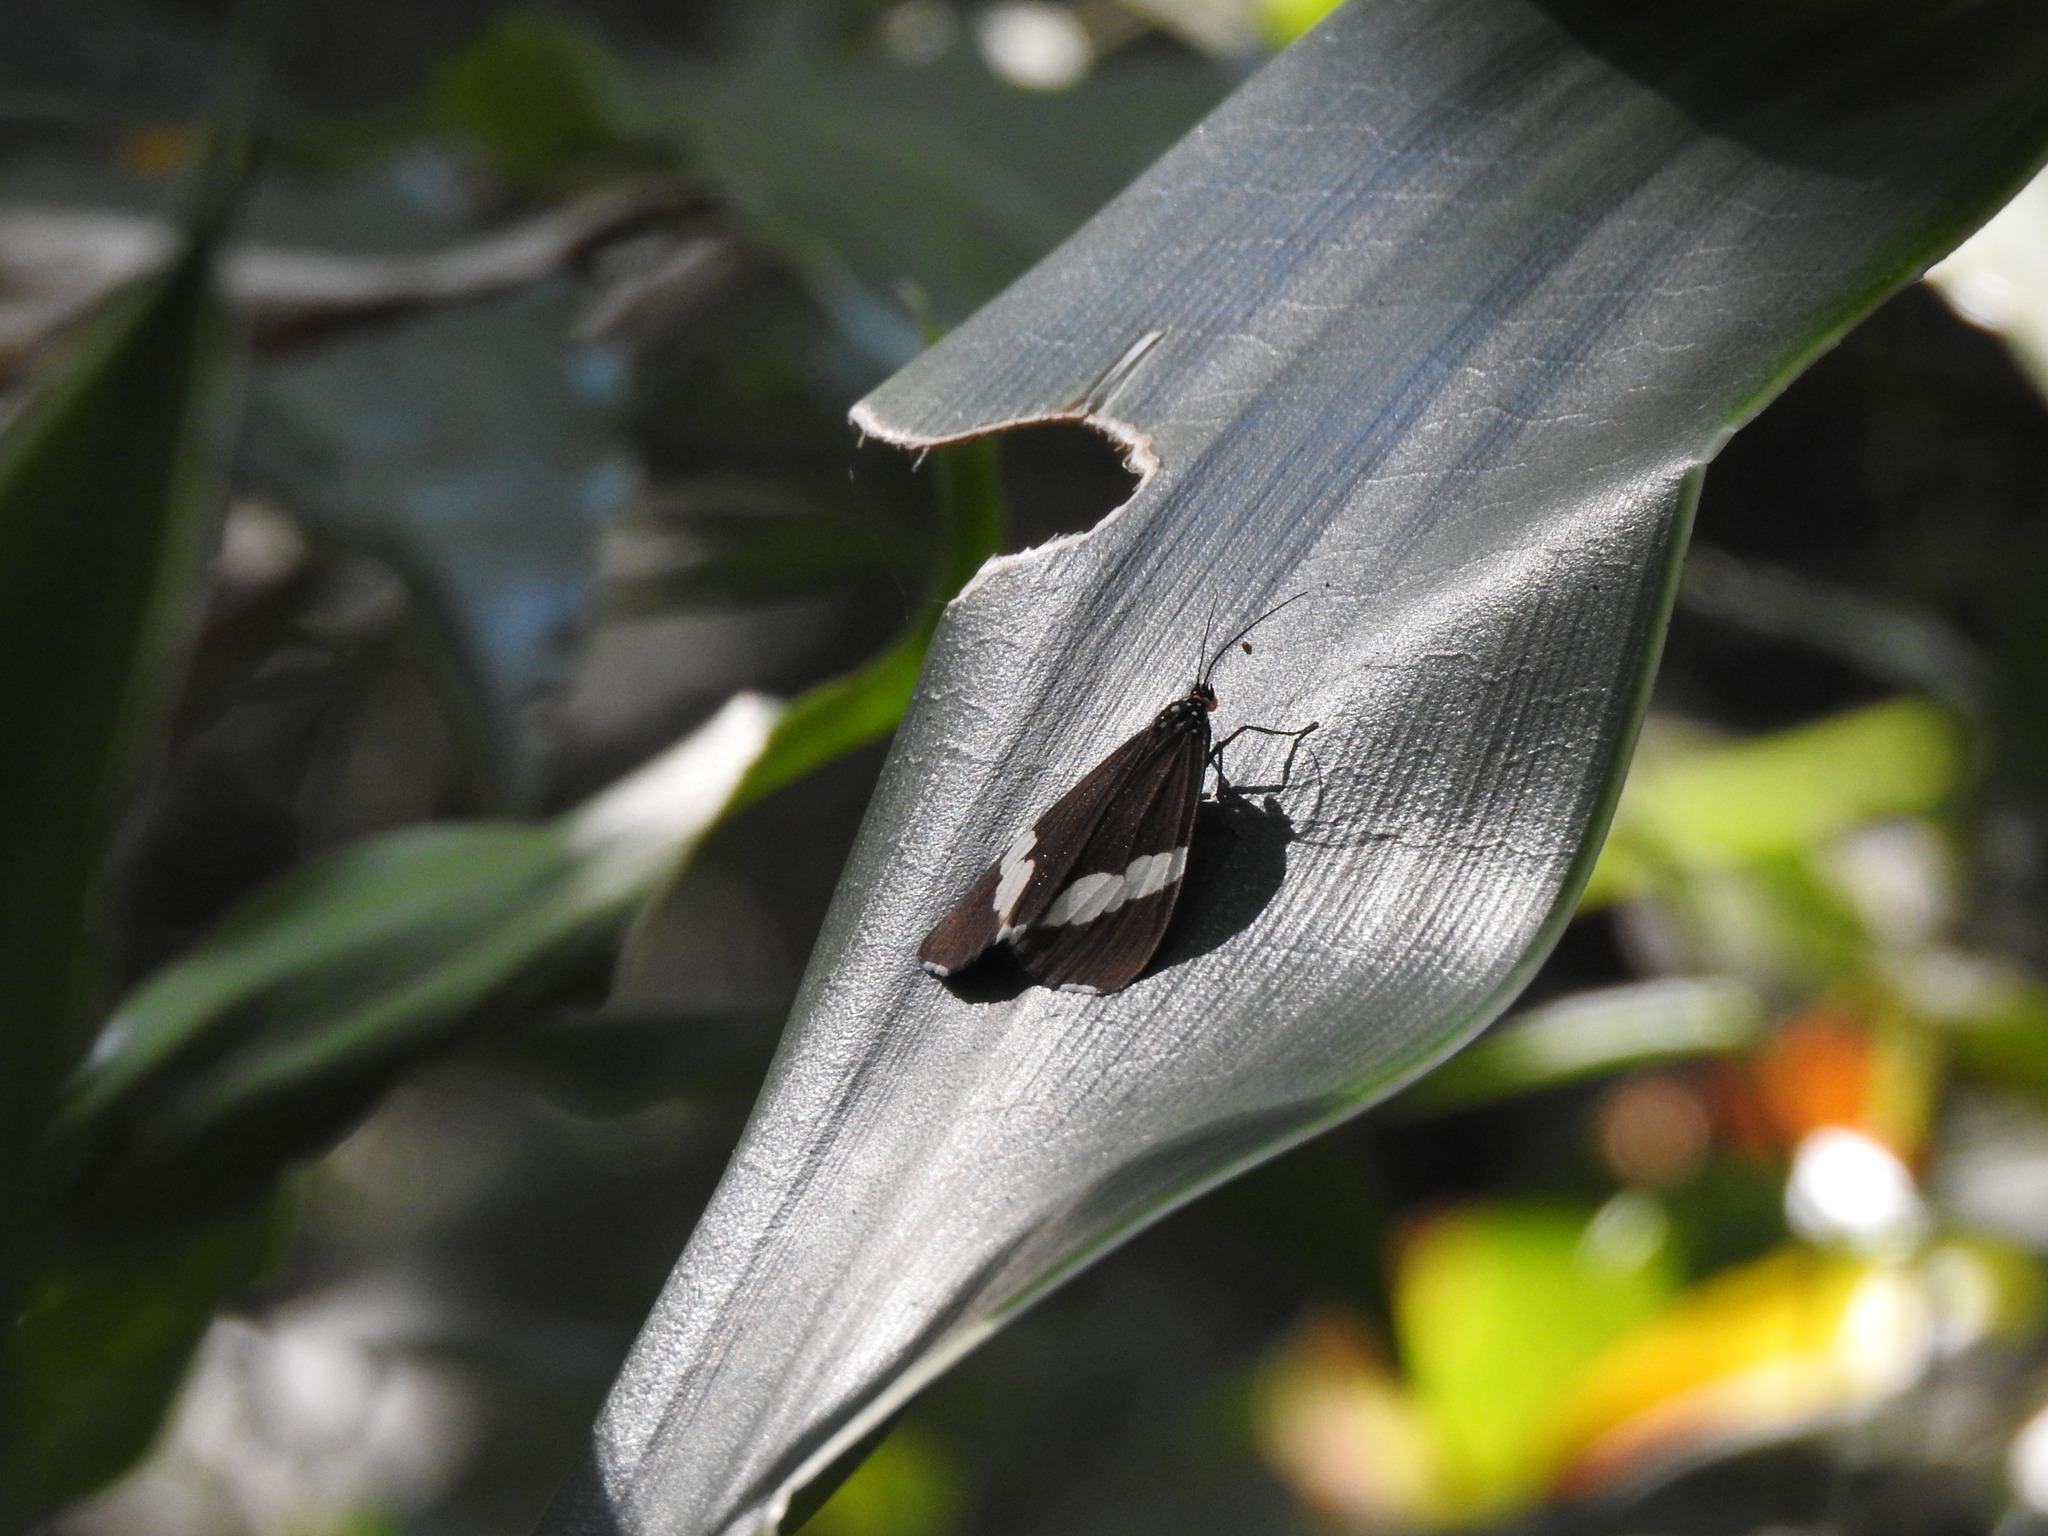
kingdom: Animalia
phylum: Arthropoda
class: Insecta
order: Lepidoptera
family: Erebidae
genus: Nyctemera
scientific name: Nyctemera
